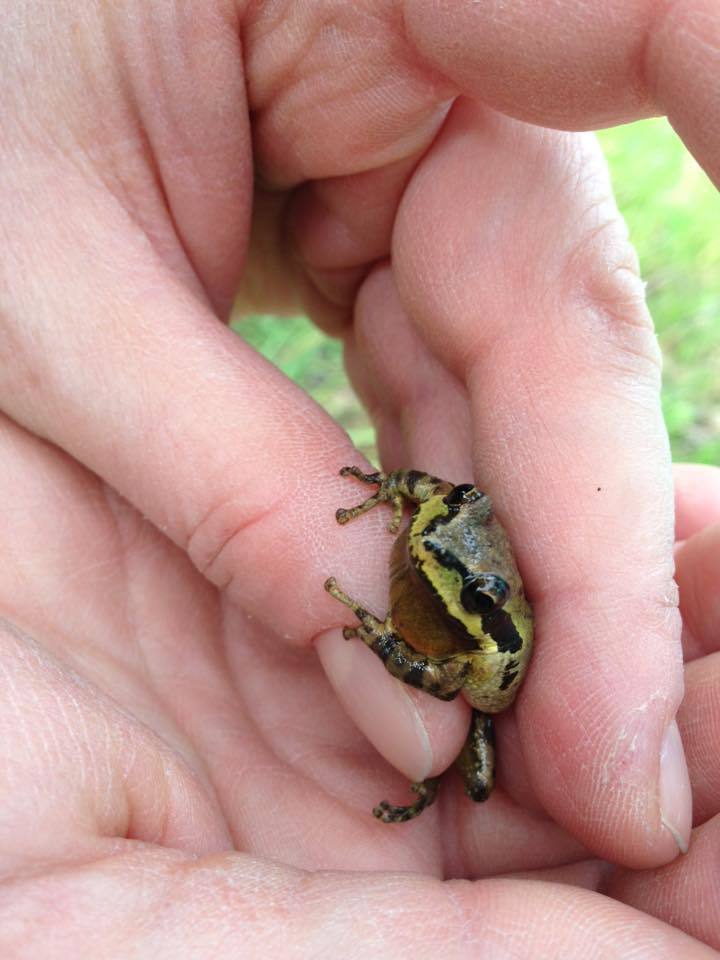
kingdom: Animalia
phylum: Chordata
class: Amphibia
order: Anura
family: Hylidae
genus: Pseudacris
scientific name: Pseudacris regilla
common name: Pacific chorus frog
